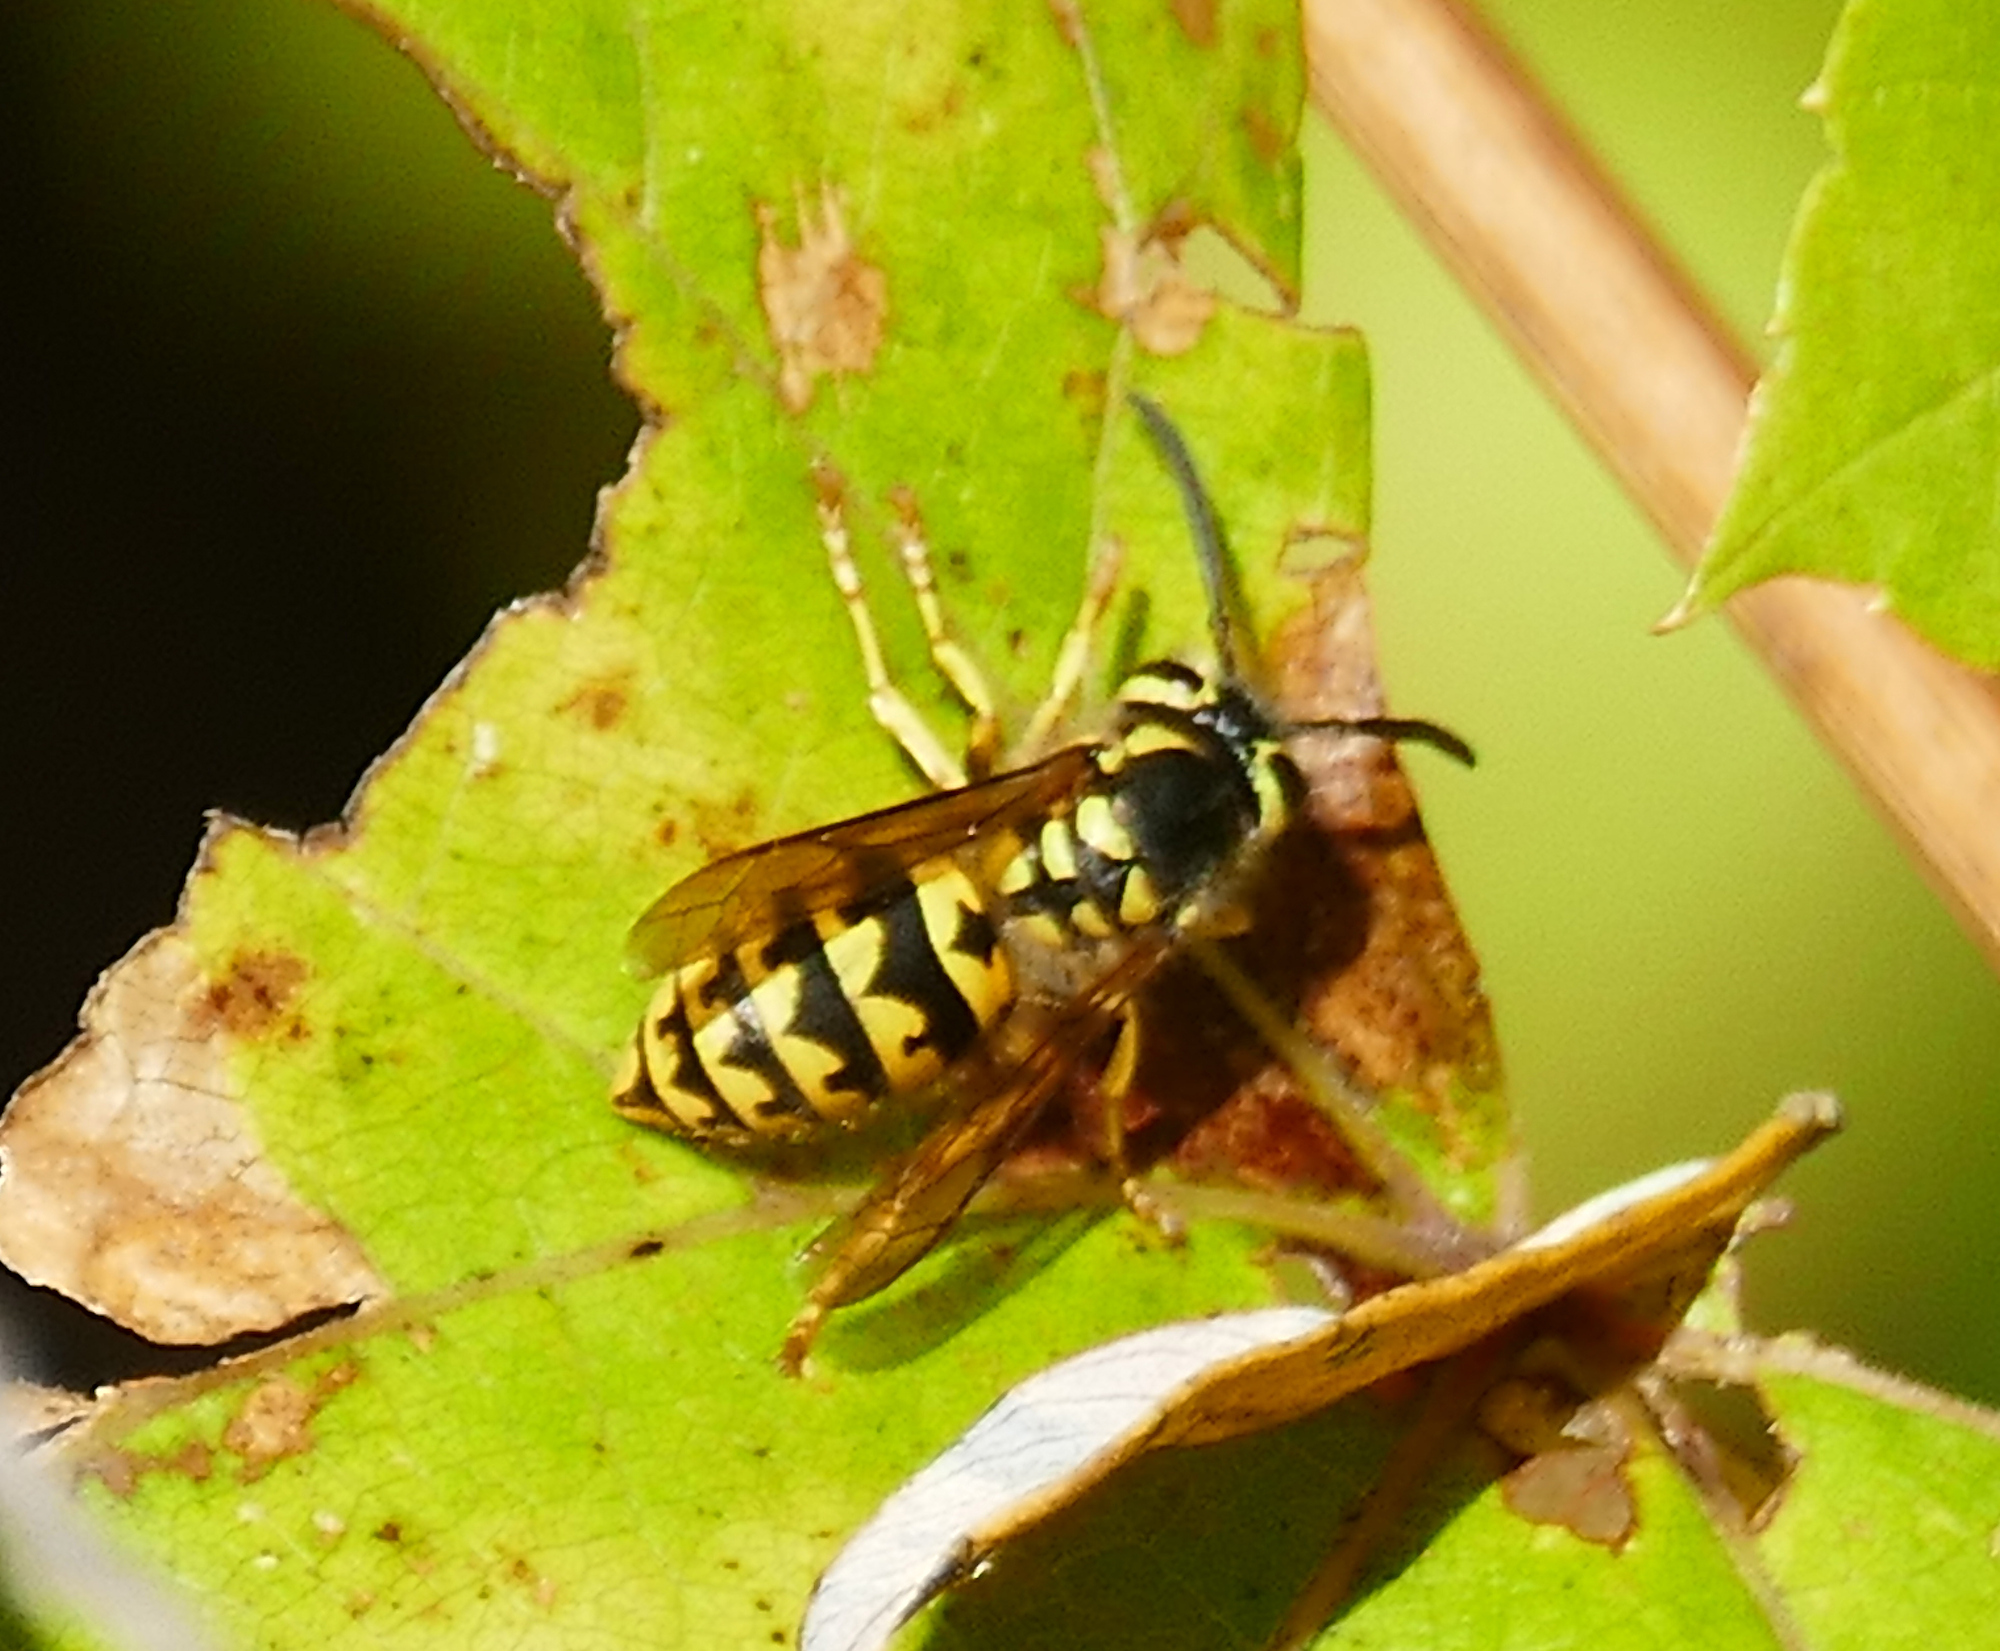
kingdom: Animalia
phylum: Arthropoda
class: Insecta
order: Hymenoptera
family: Vespidae
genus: Vespula
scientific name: Vespula pensylvanica
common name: Western yellowjacket
